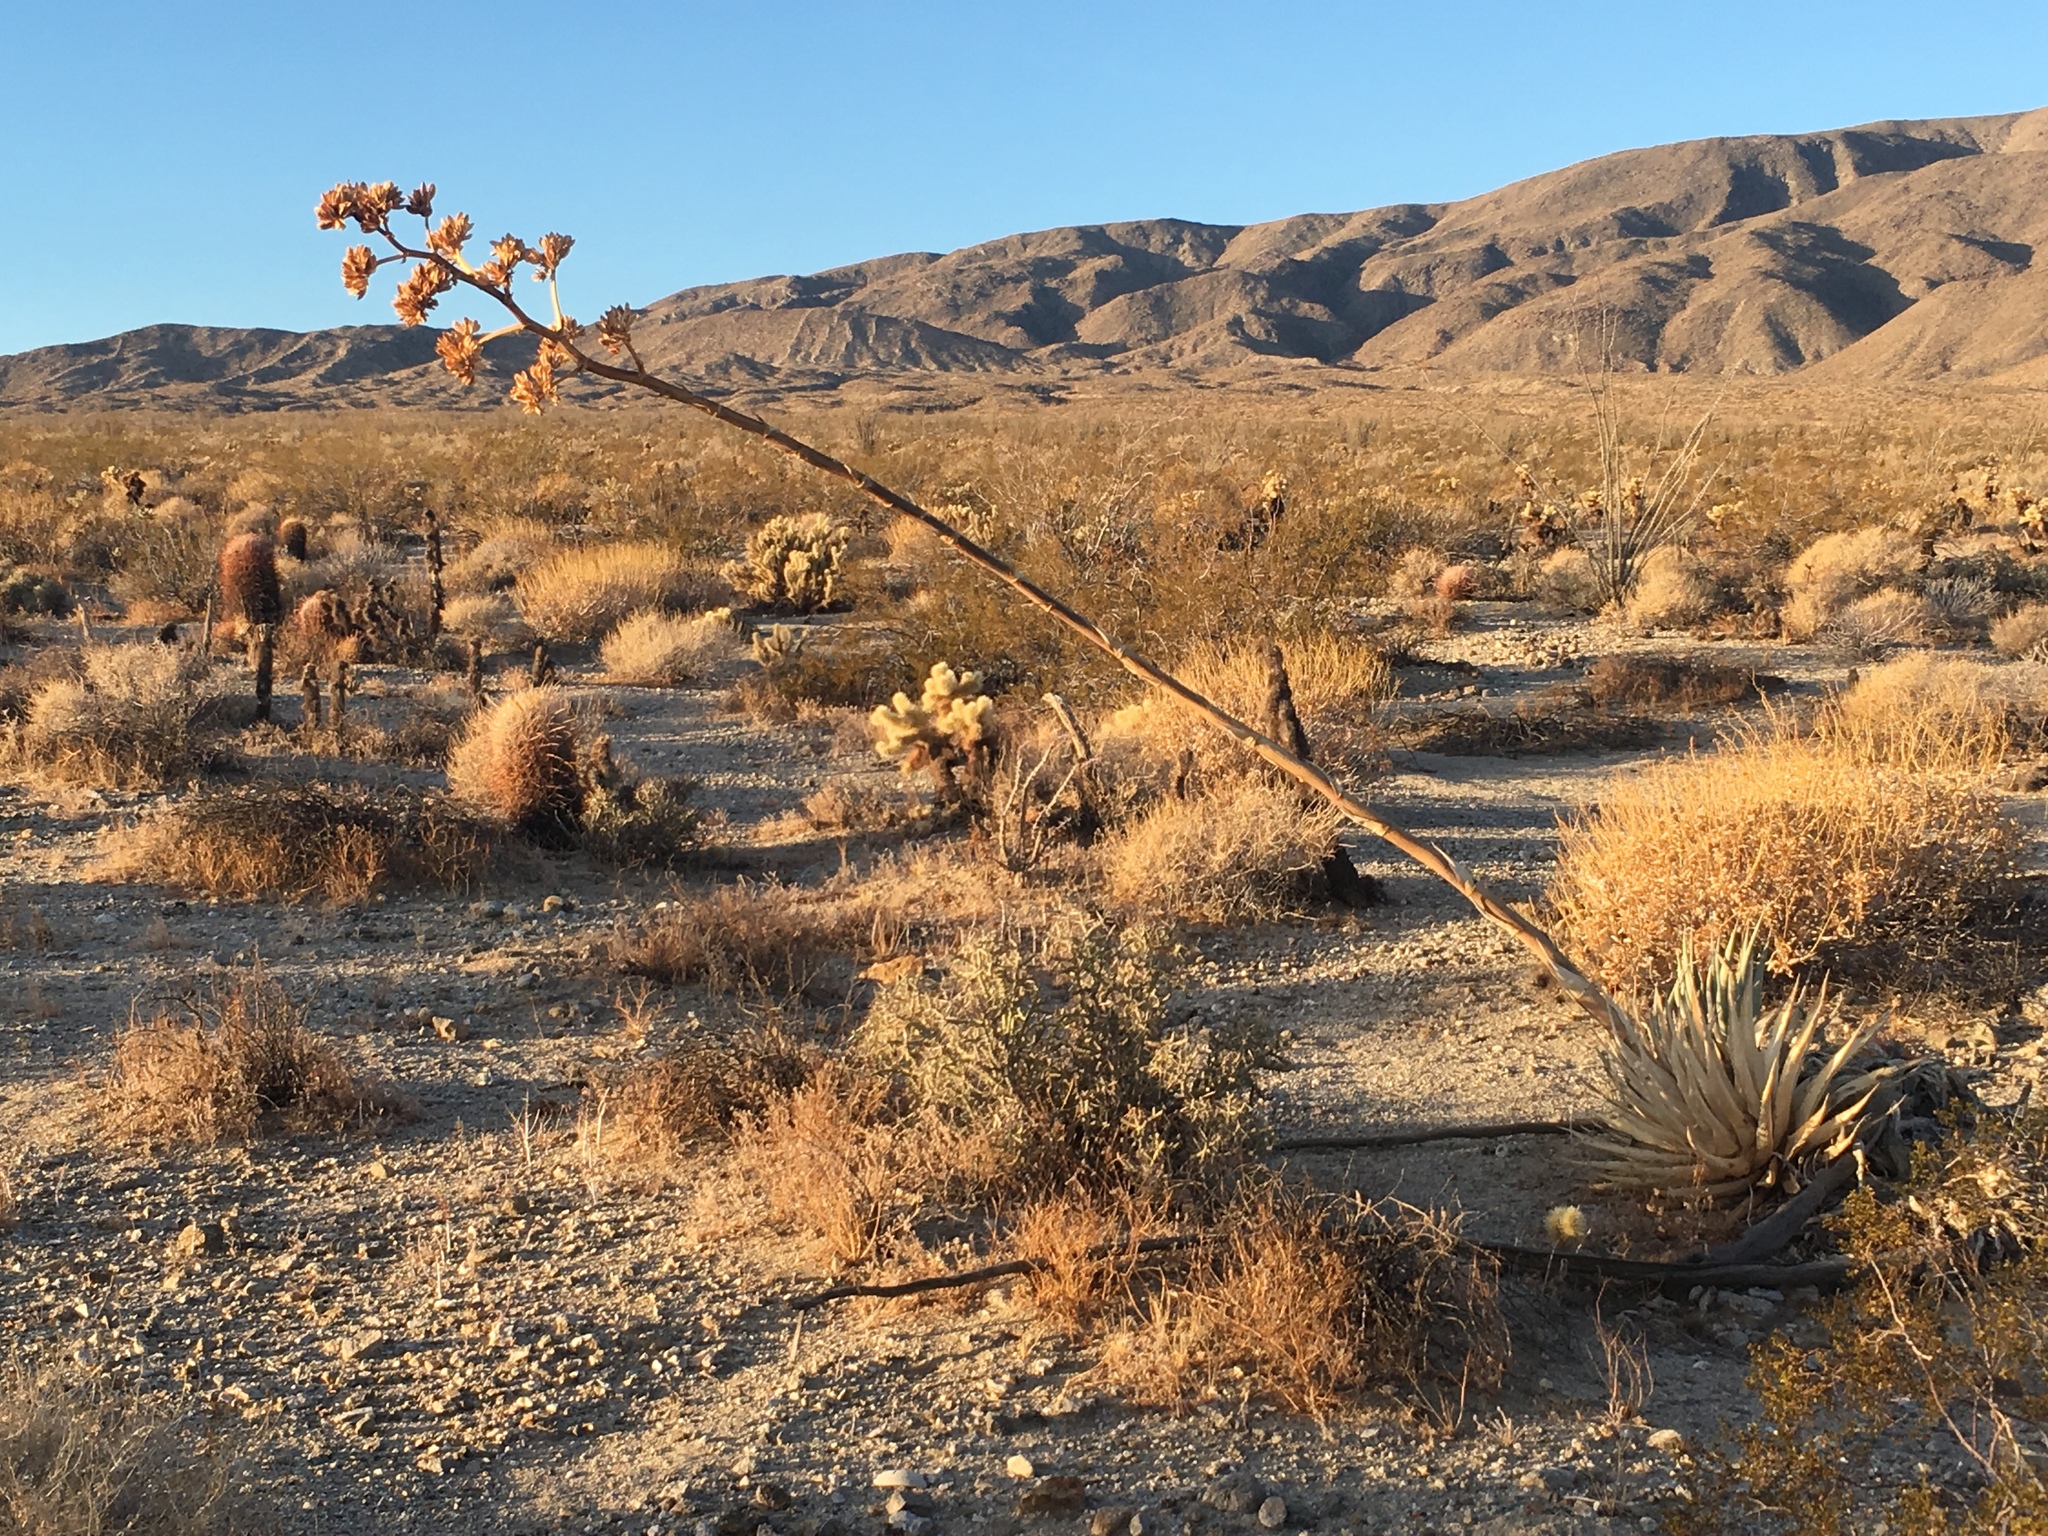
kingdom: Plantae
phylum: Tracheophyta
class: Liliopsida
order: Asparagales
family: Asparagaceae
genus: Agave
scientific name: Agave deserti
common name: Desert agave
